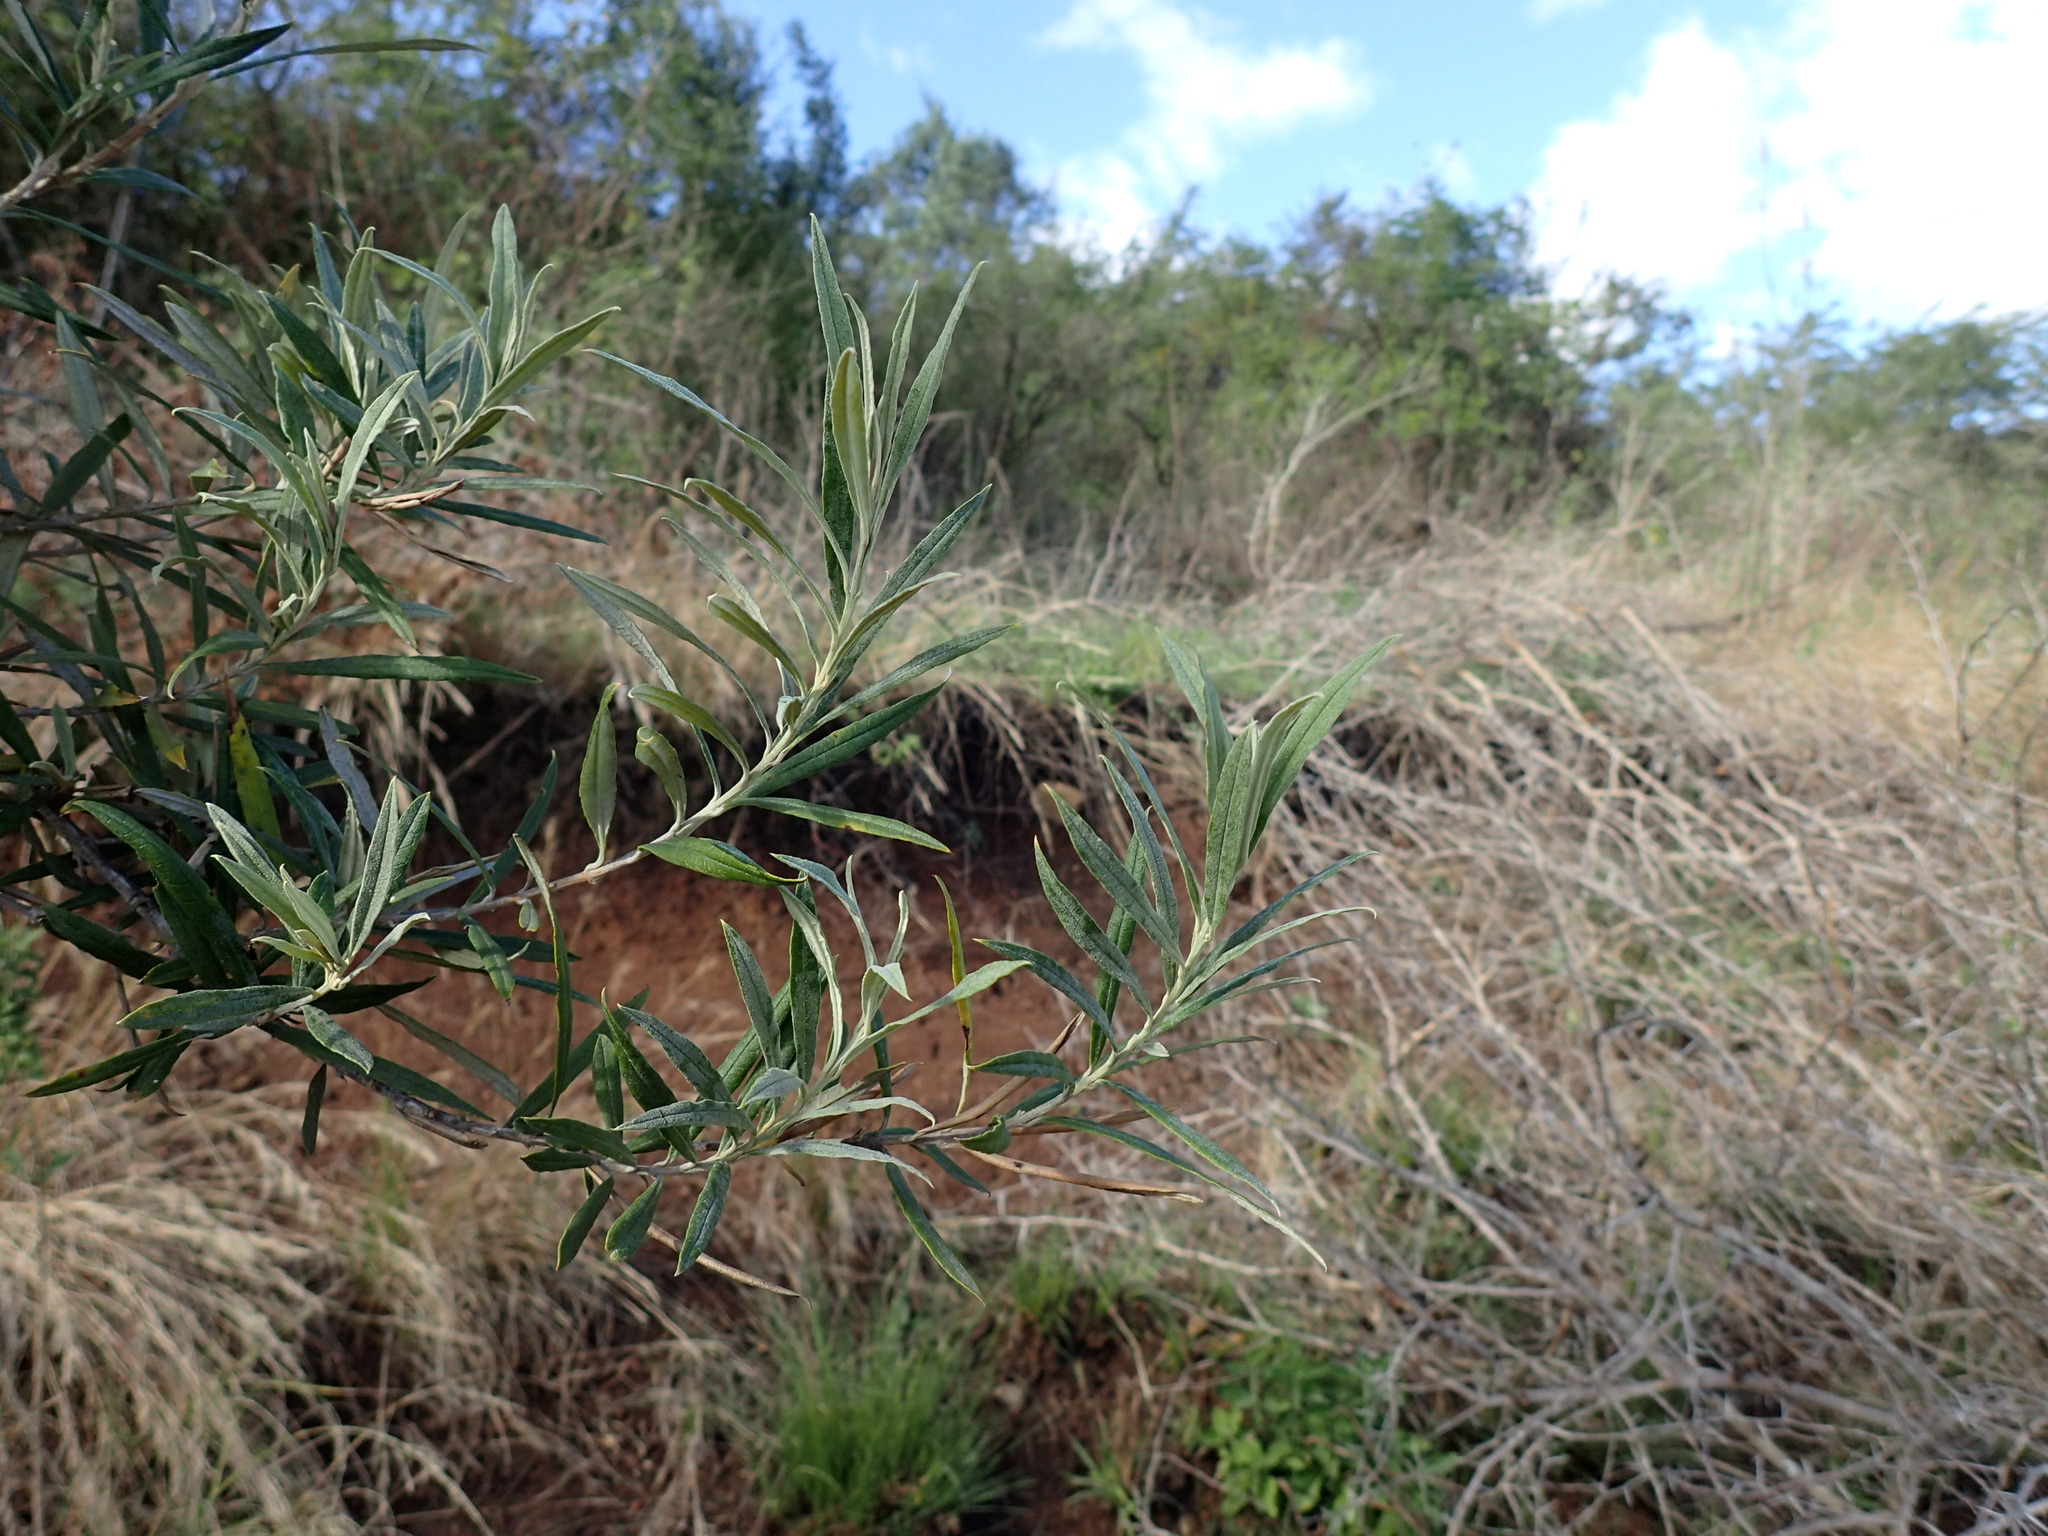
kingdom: Plantae
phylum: Tracheophyta
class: Magnoliopsida
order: Lamiales
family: Scrophulariaceae
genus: Buddleja
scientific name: Buddleja saligna
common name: False olive
